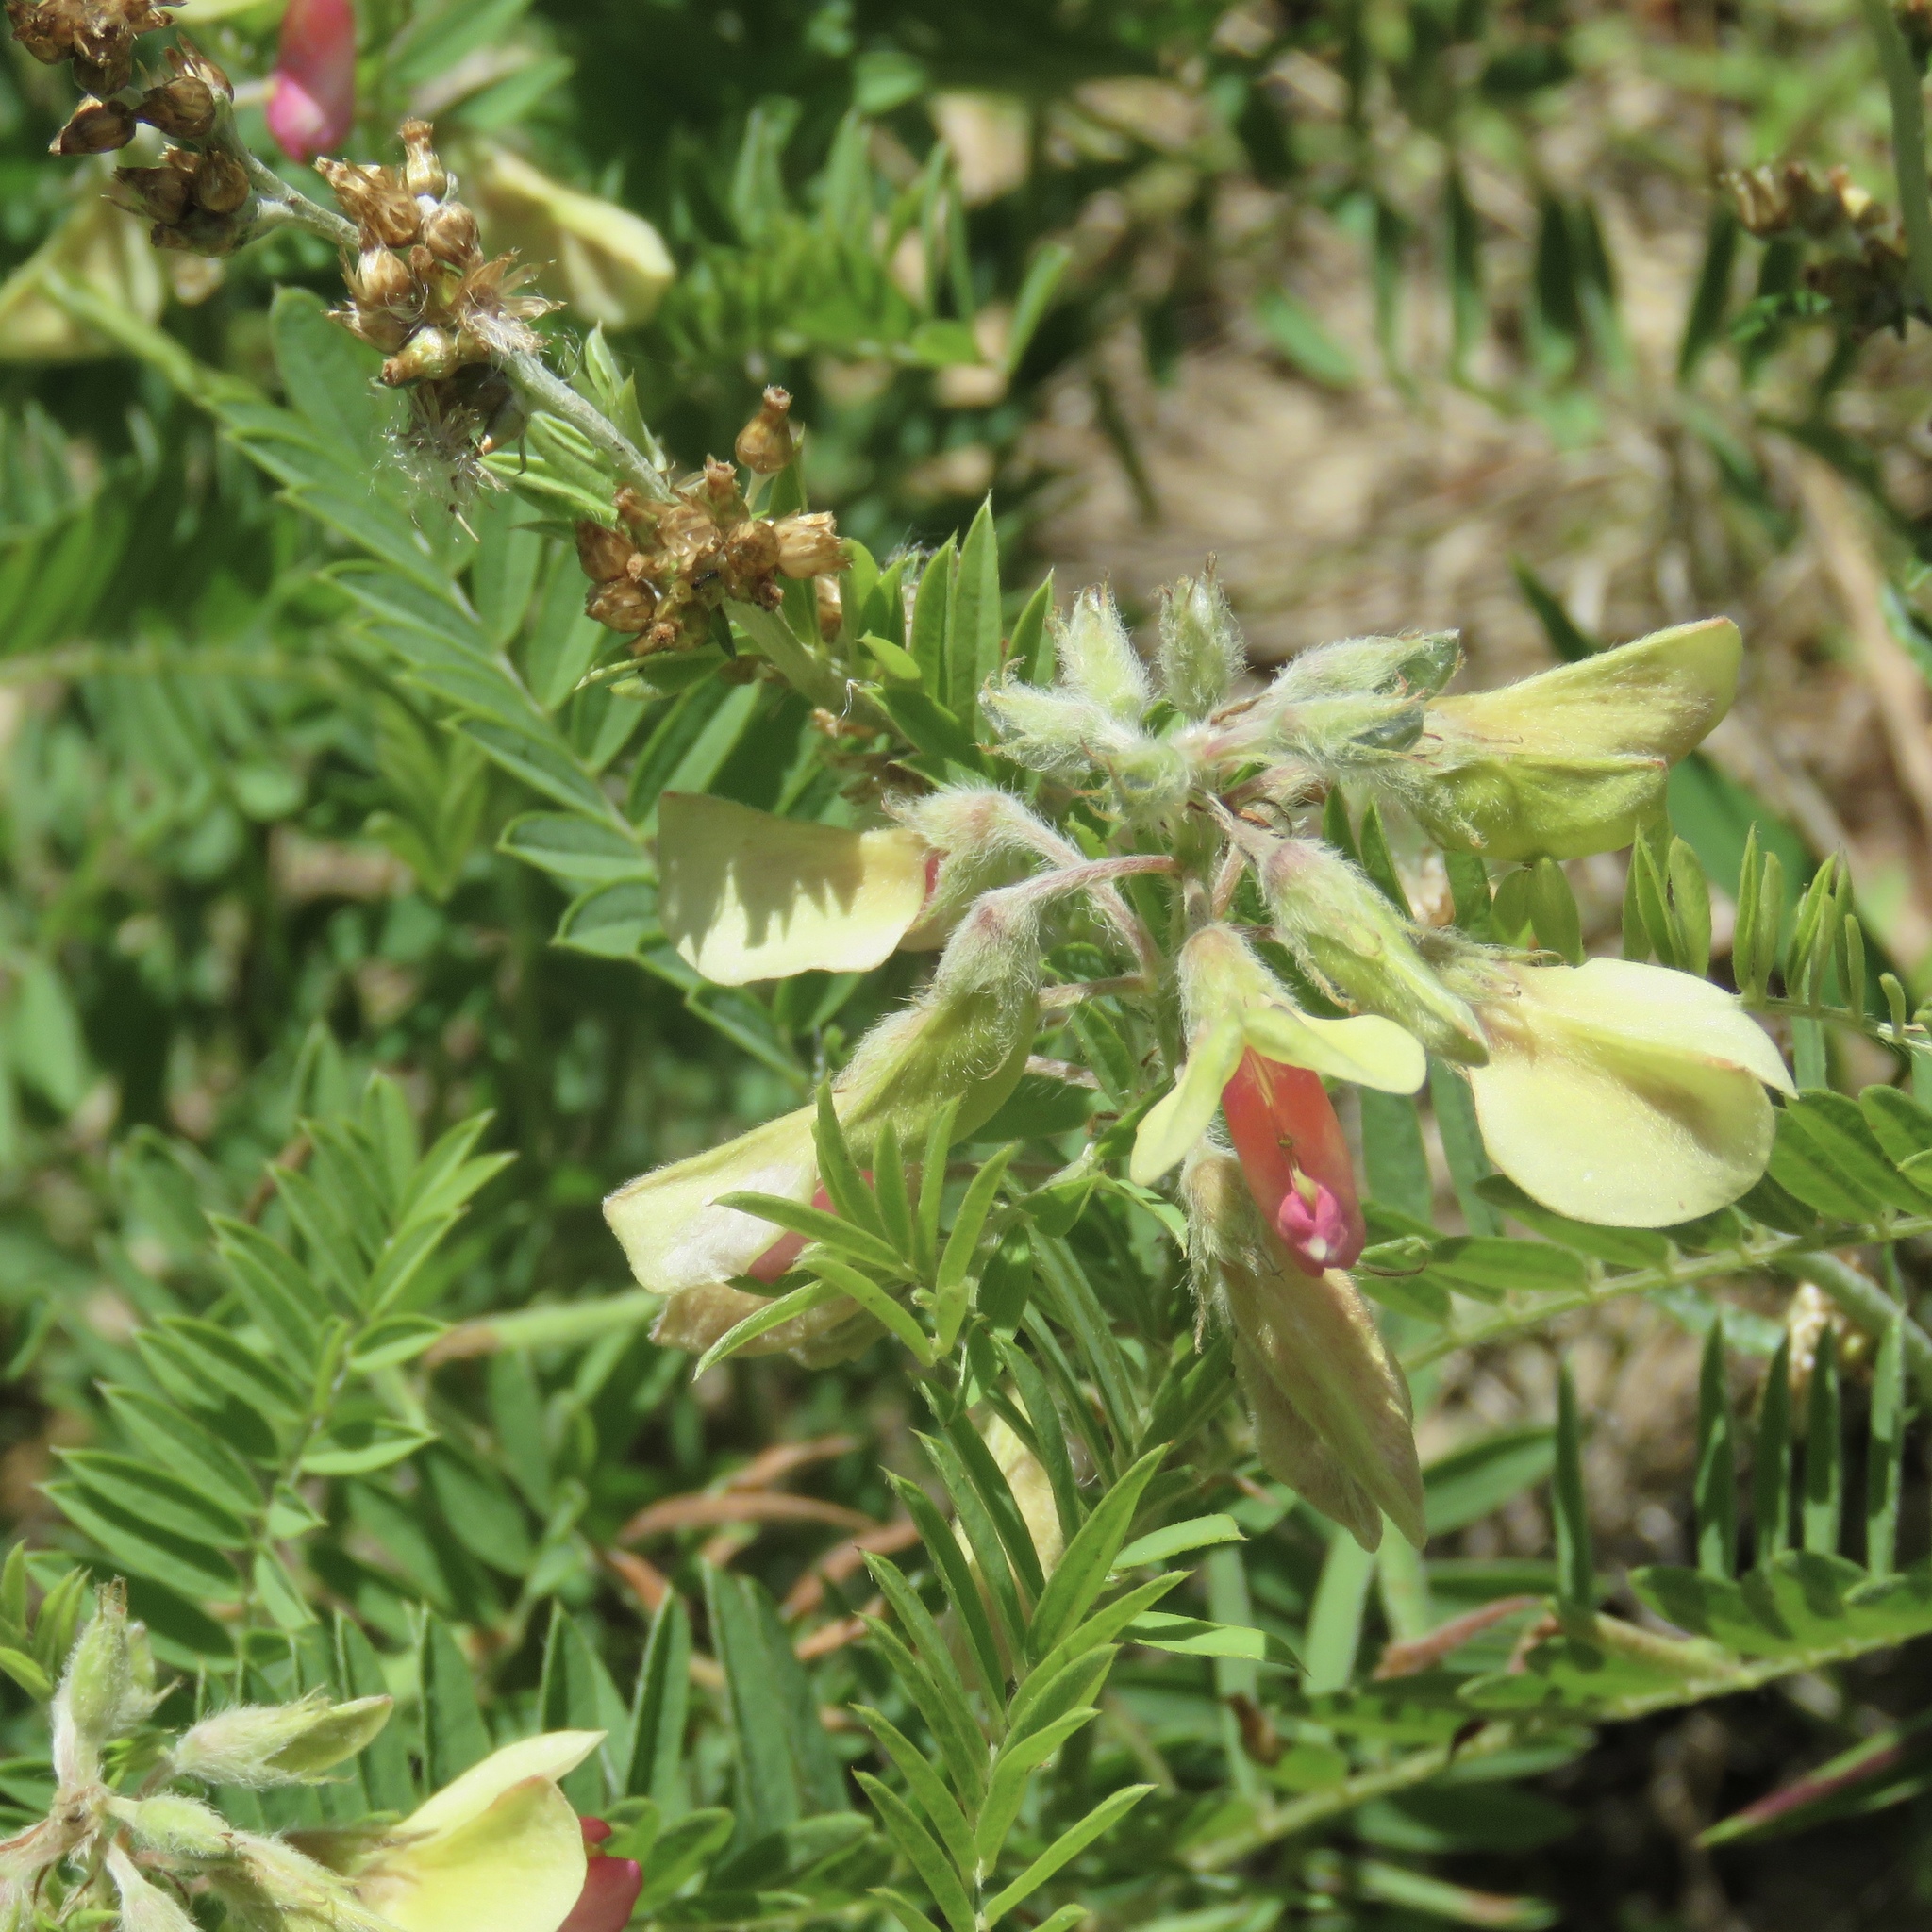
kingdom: Plantae
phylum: Tracheophyta
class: Magnoliopsida
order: Fabales
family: Fabaceae
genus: Tephrosia
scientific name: Tephrosia virginiana
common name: Rabbit-pea
